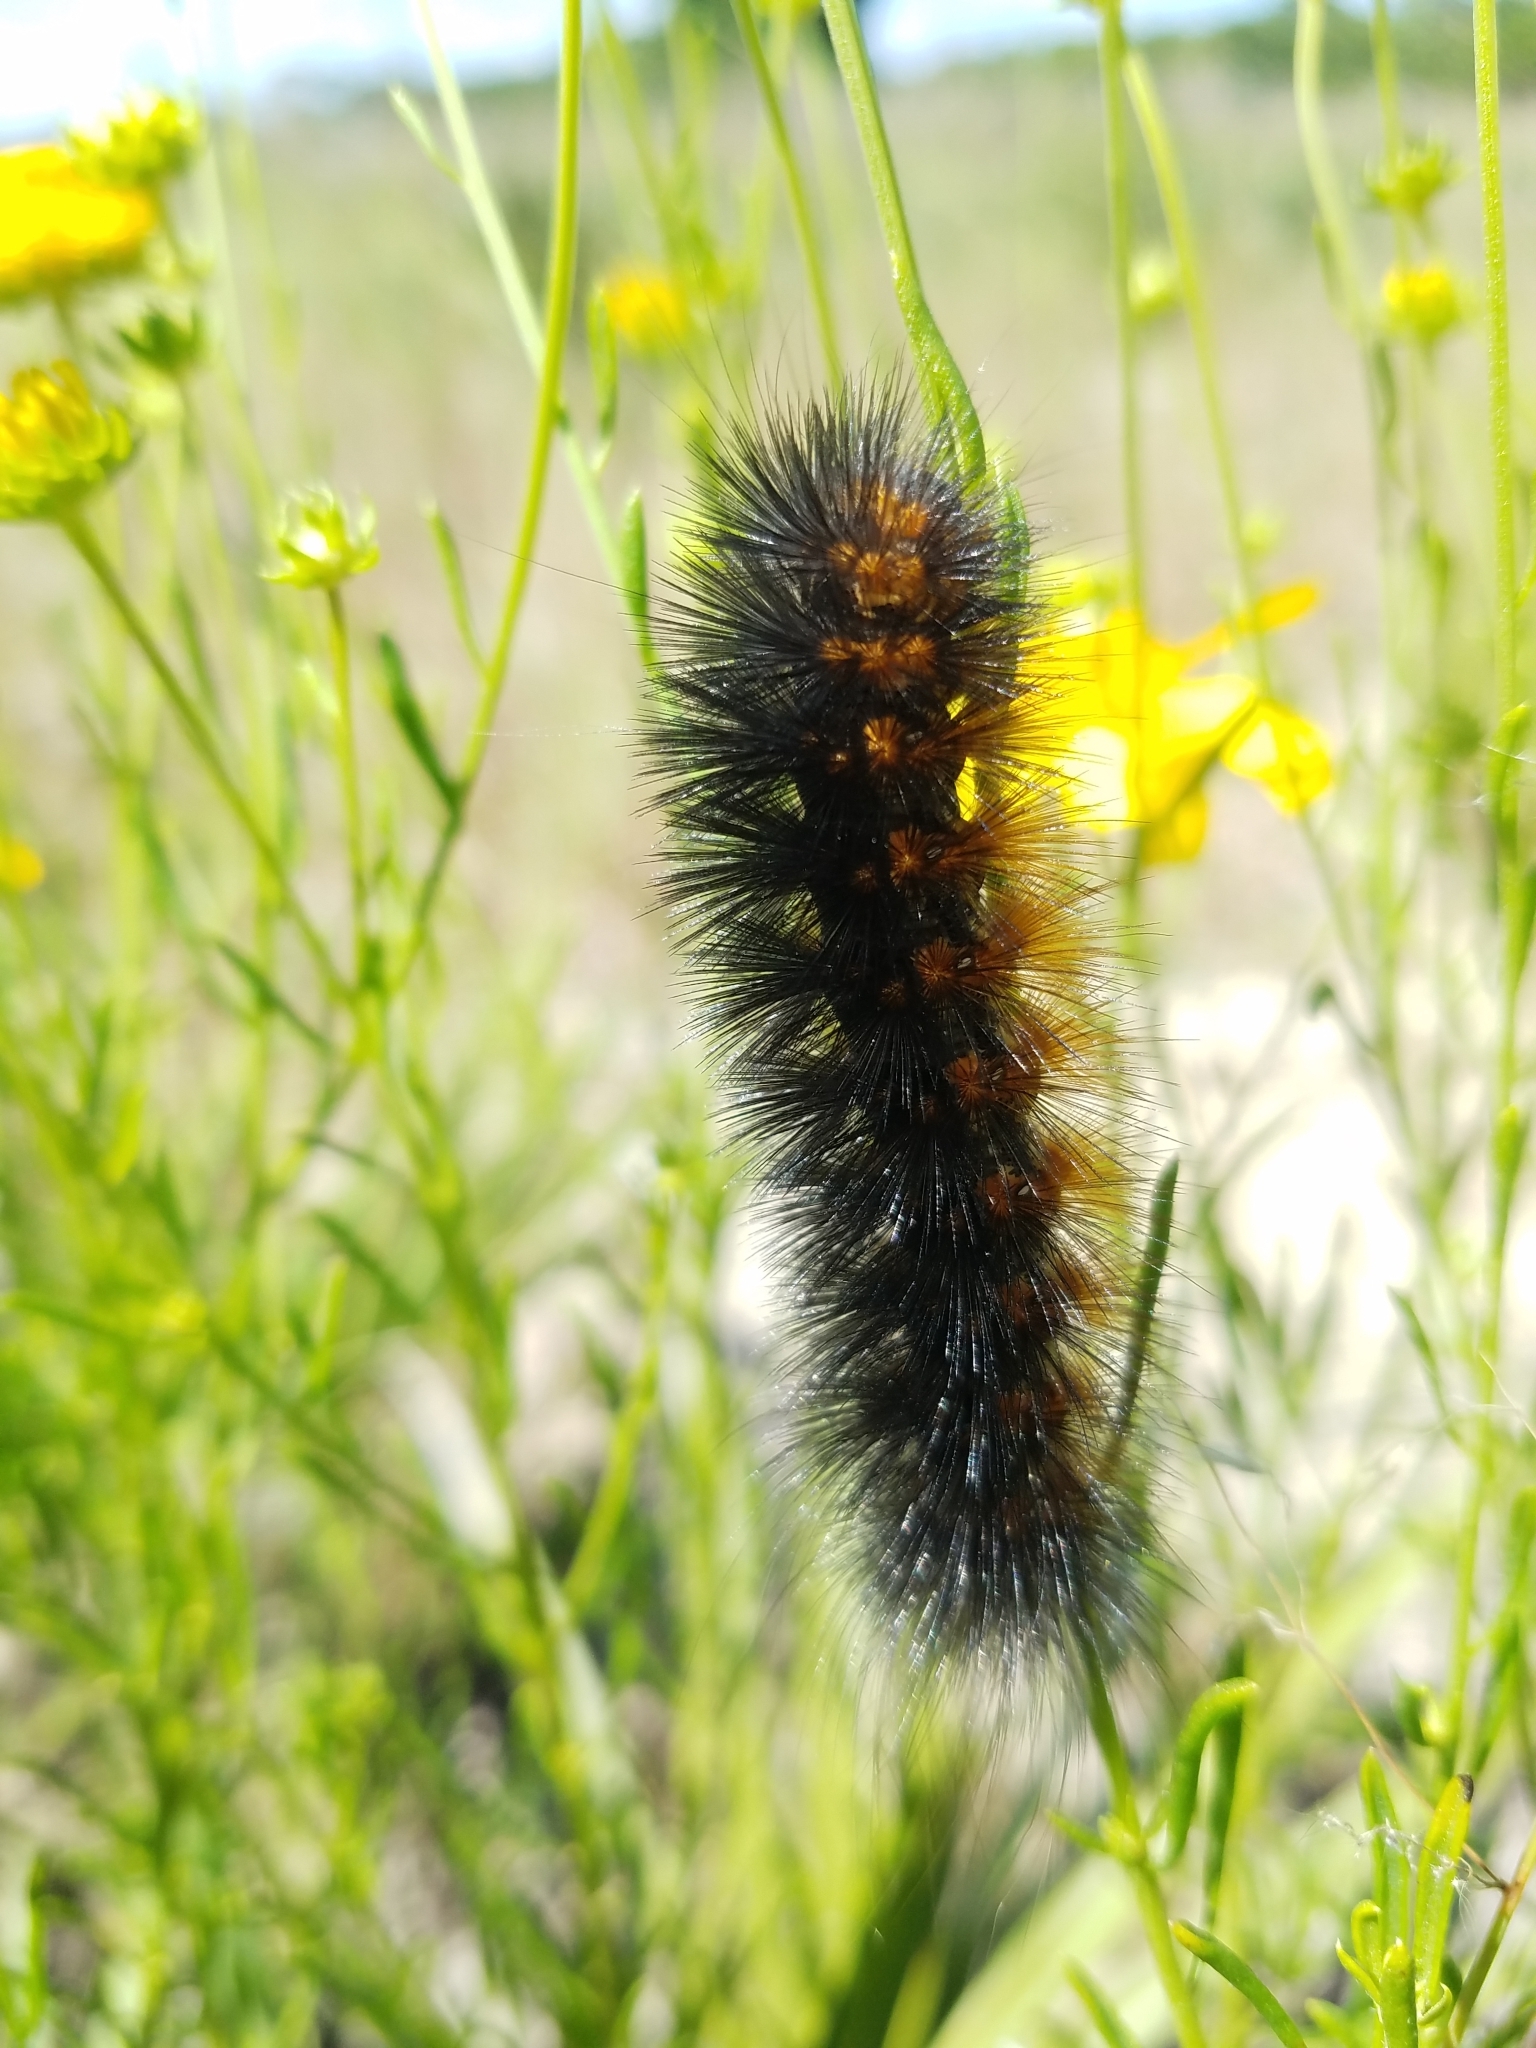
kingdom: Animalia
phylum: Arthropoda
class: Insecta
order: Lepidoptera
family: Erebidae
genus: Estigmene
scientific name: Estigmene acrea
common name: Salt marsh moth
